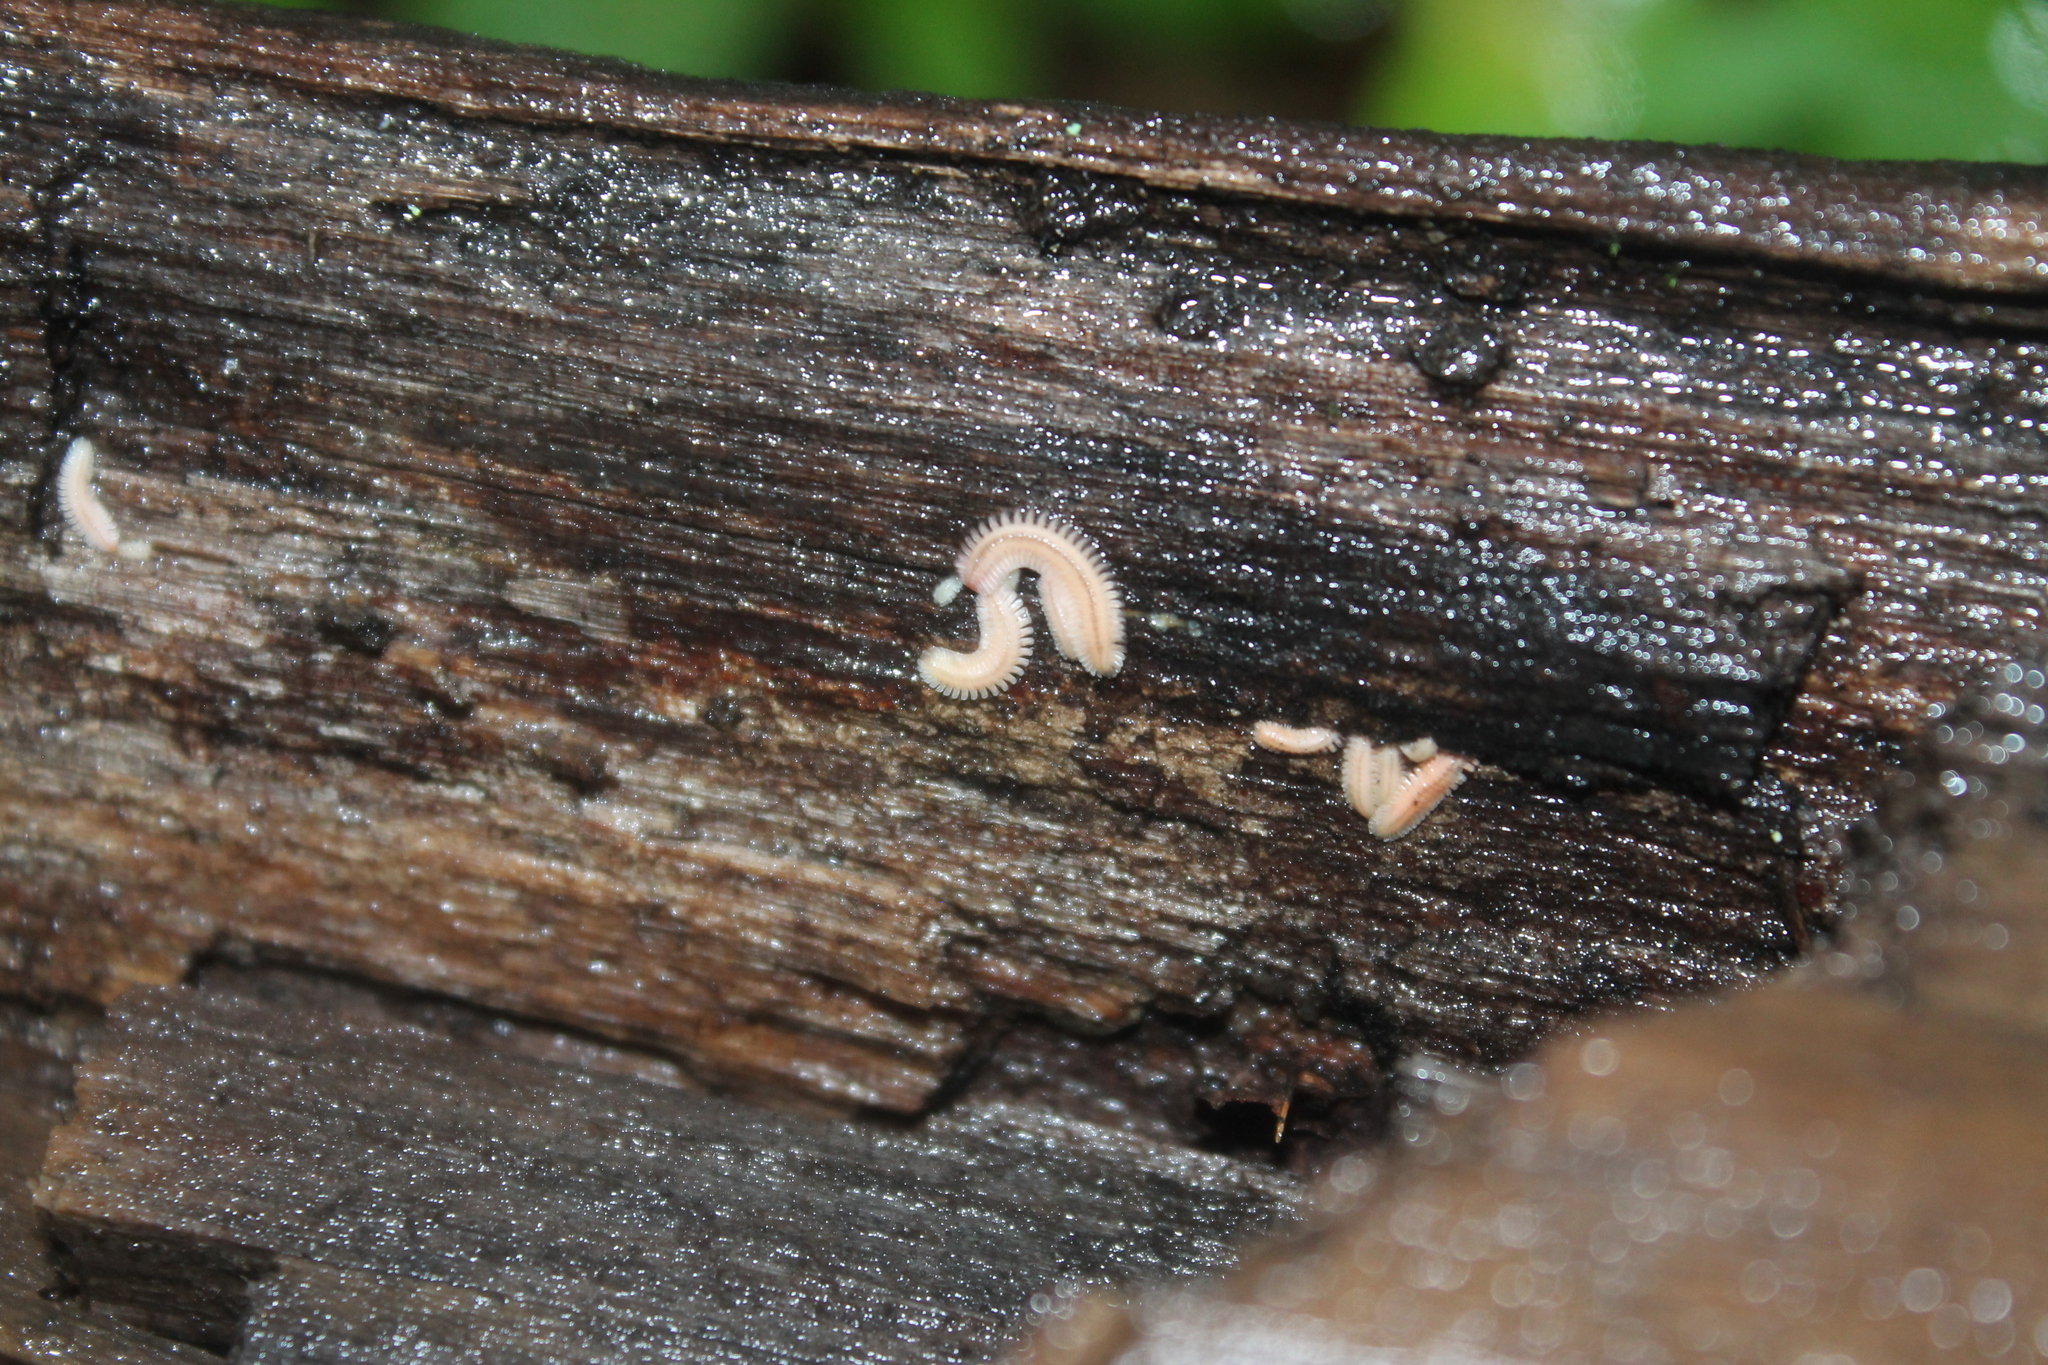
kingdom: Animalia
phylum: Arthropoda
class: Diplopoda
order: Platydesmida
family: Andrognathidae
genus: Brachycybe
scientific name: Brachycybe lecontii
